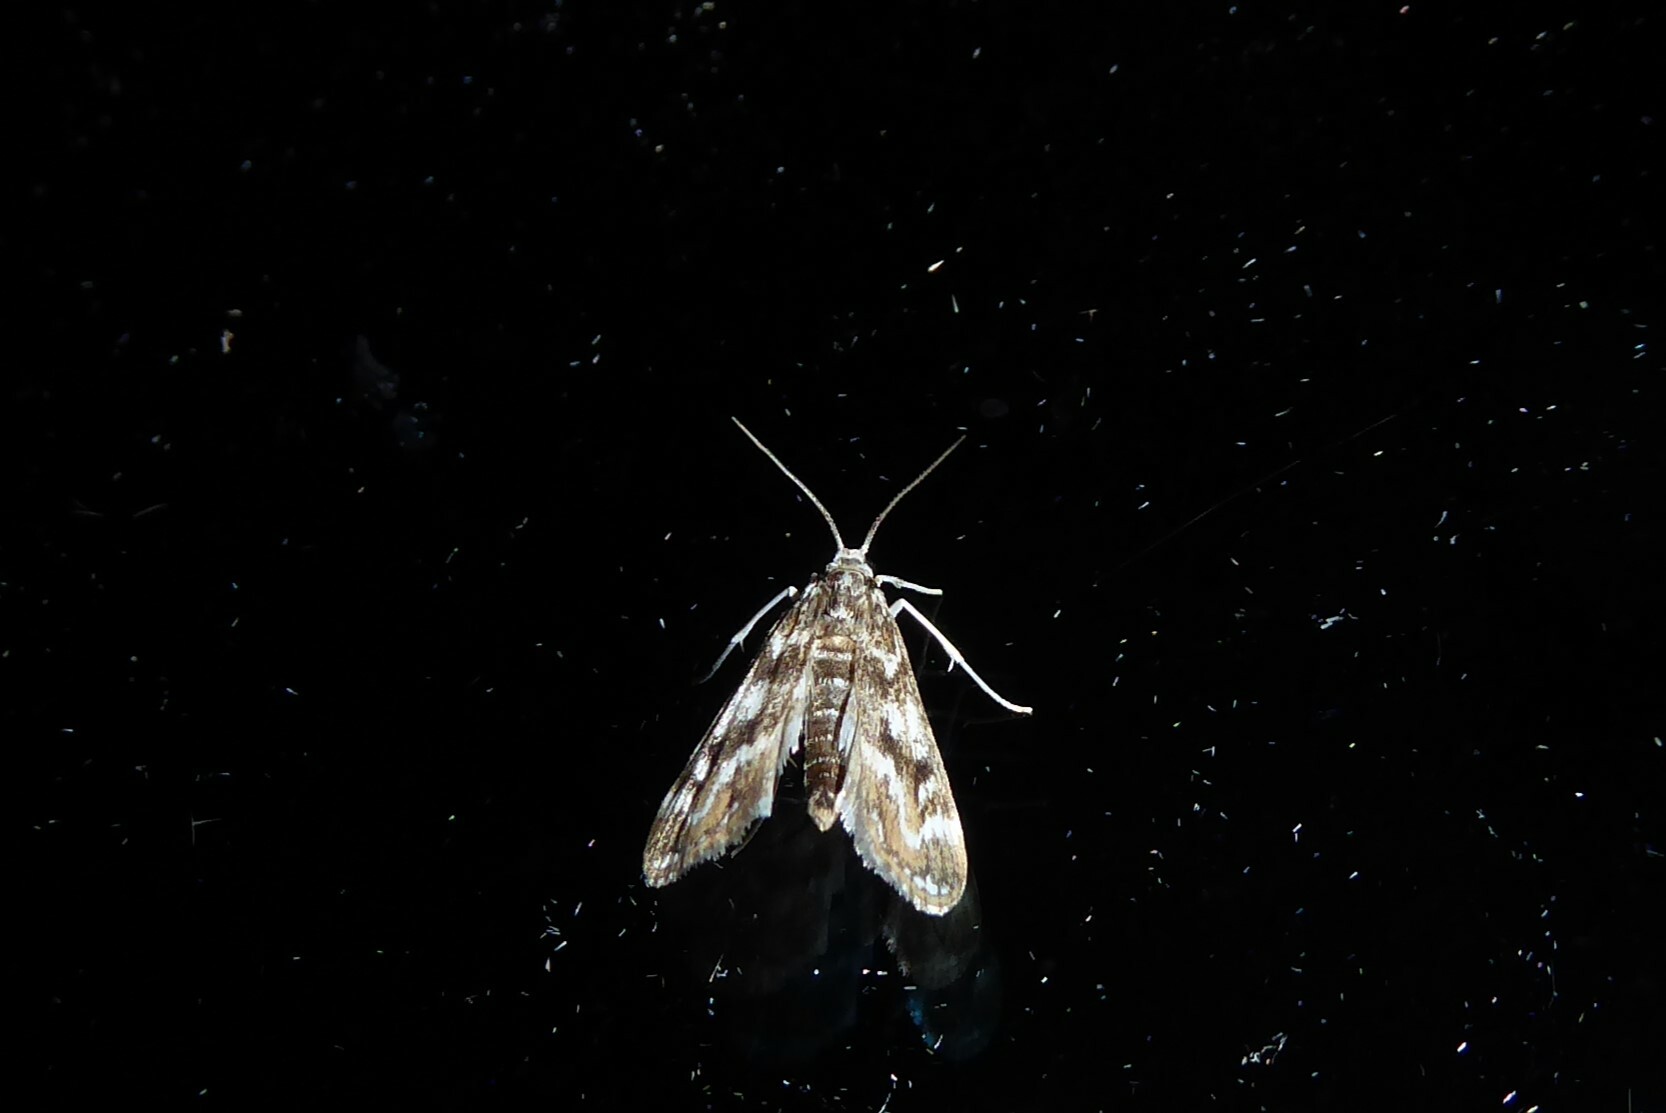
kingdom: Animalia
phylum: Arthropoda
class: Insecta
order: Lepidoptera
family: Crambidae
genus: Hygraula
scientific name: Hygraula nitens
